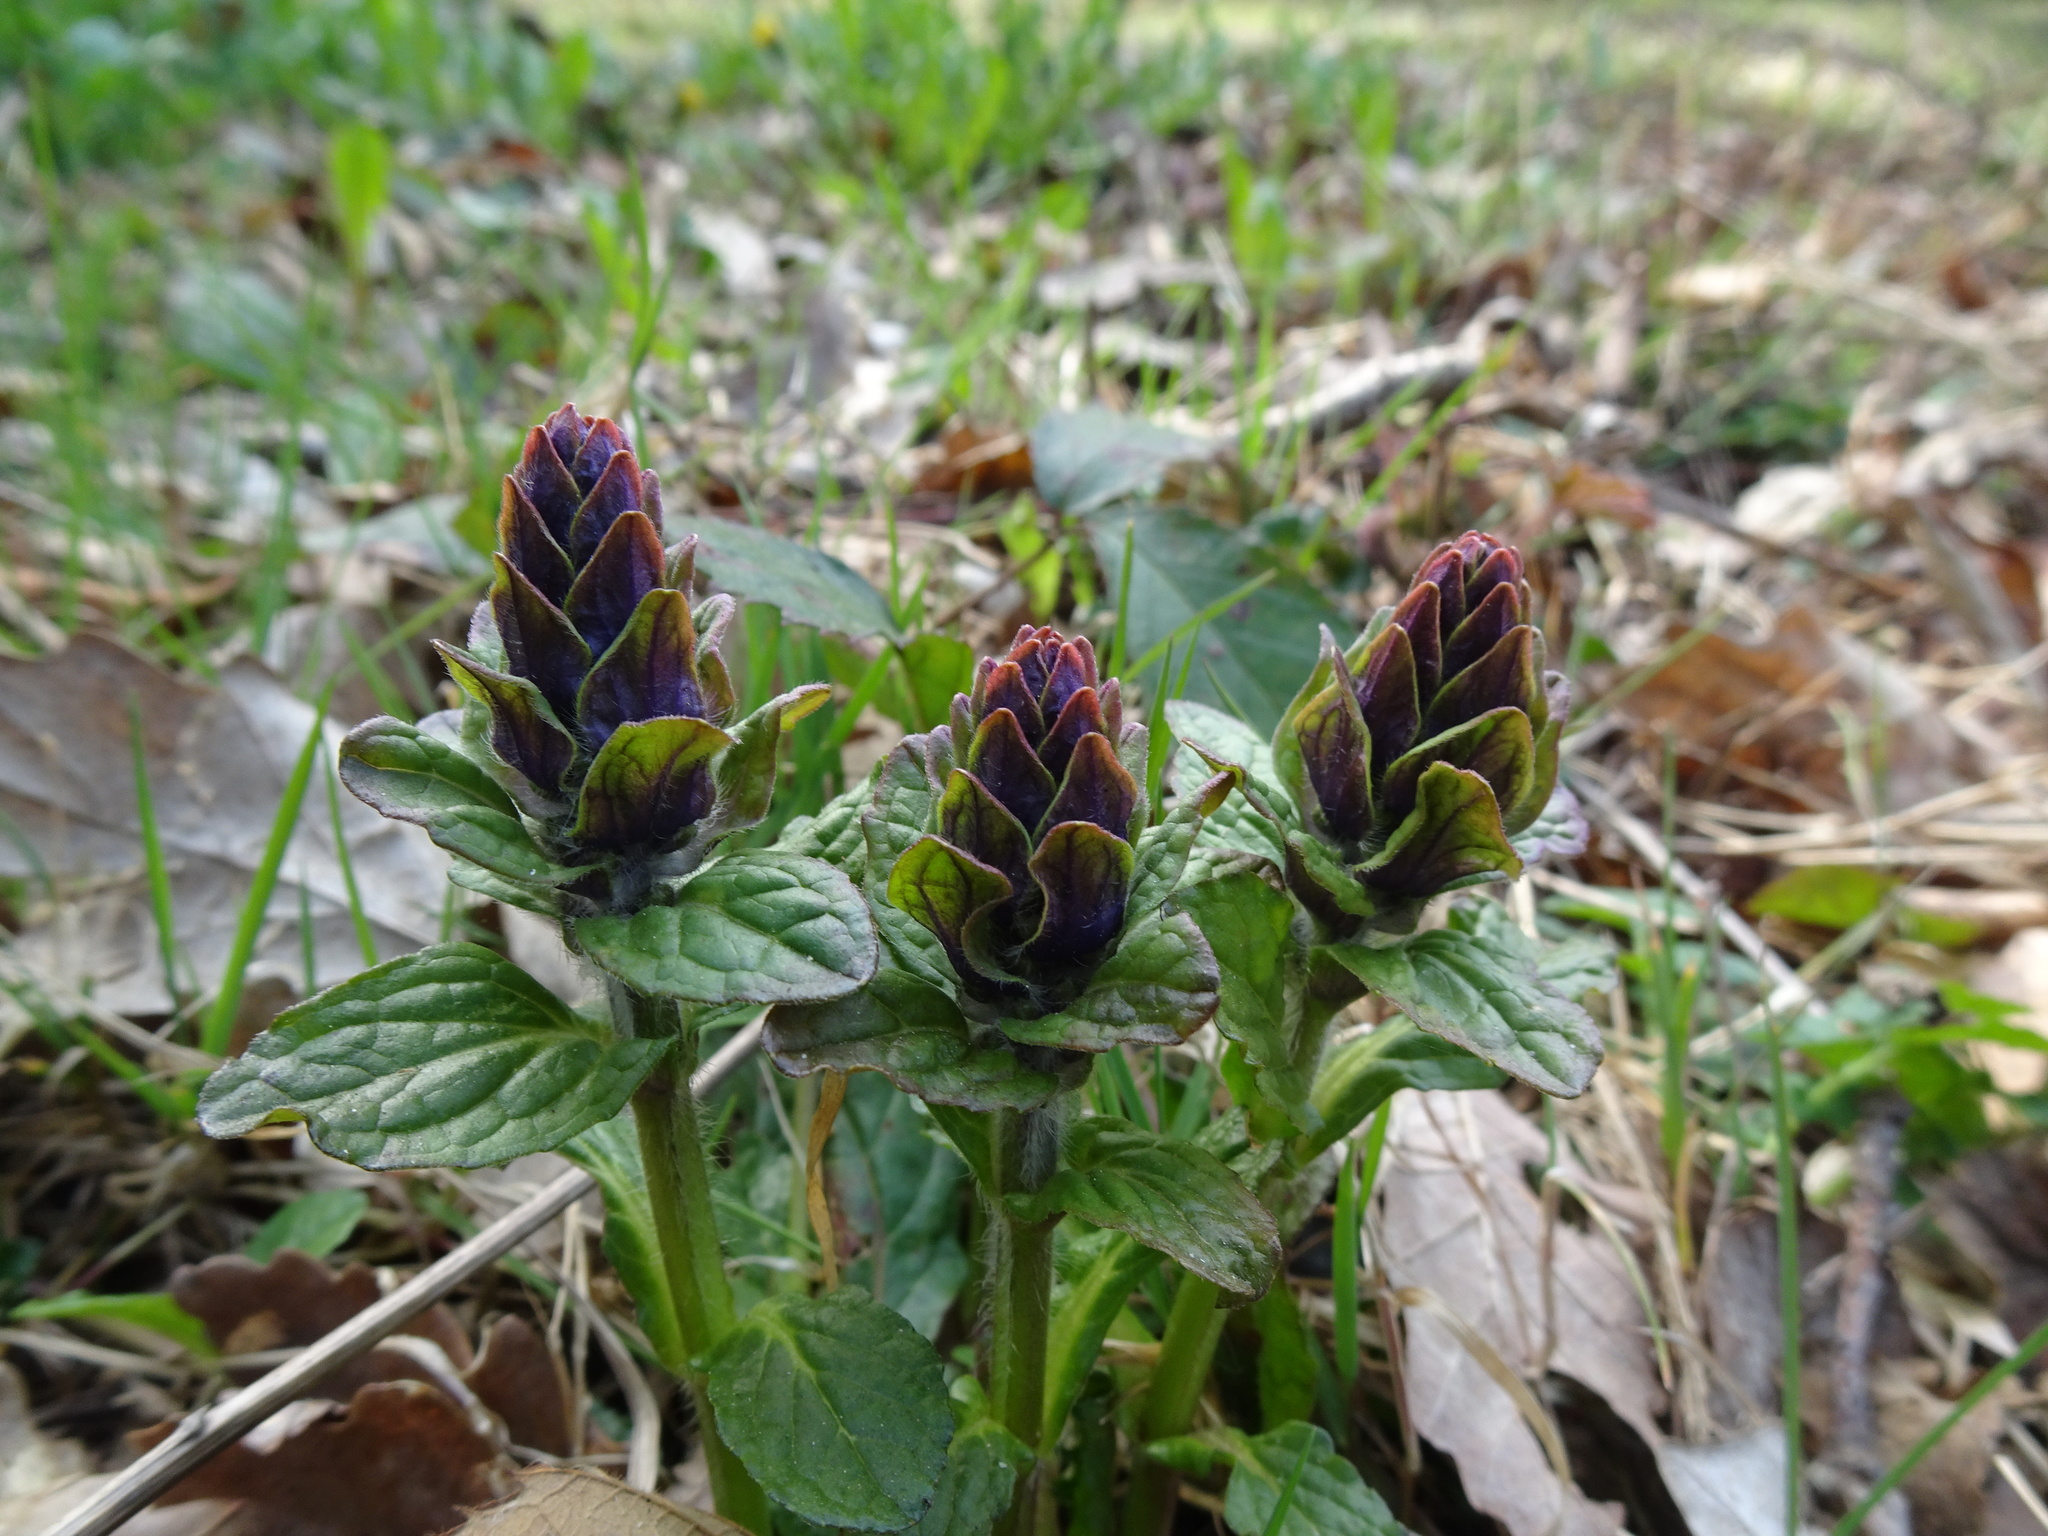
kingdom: Plantae
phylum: Tracheophyta
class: Magnoliopsida
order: Lamiales
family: Lamiaceae
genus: Ajuga
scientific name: Ajuga reptans
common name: Bugle
